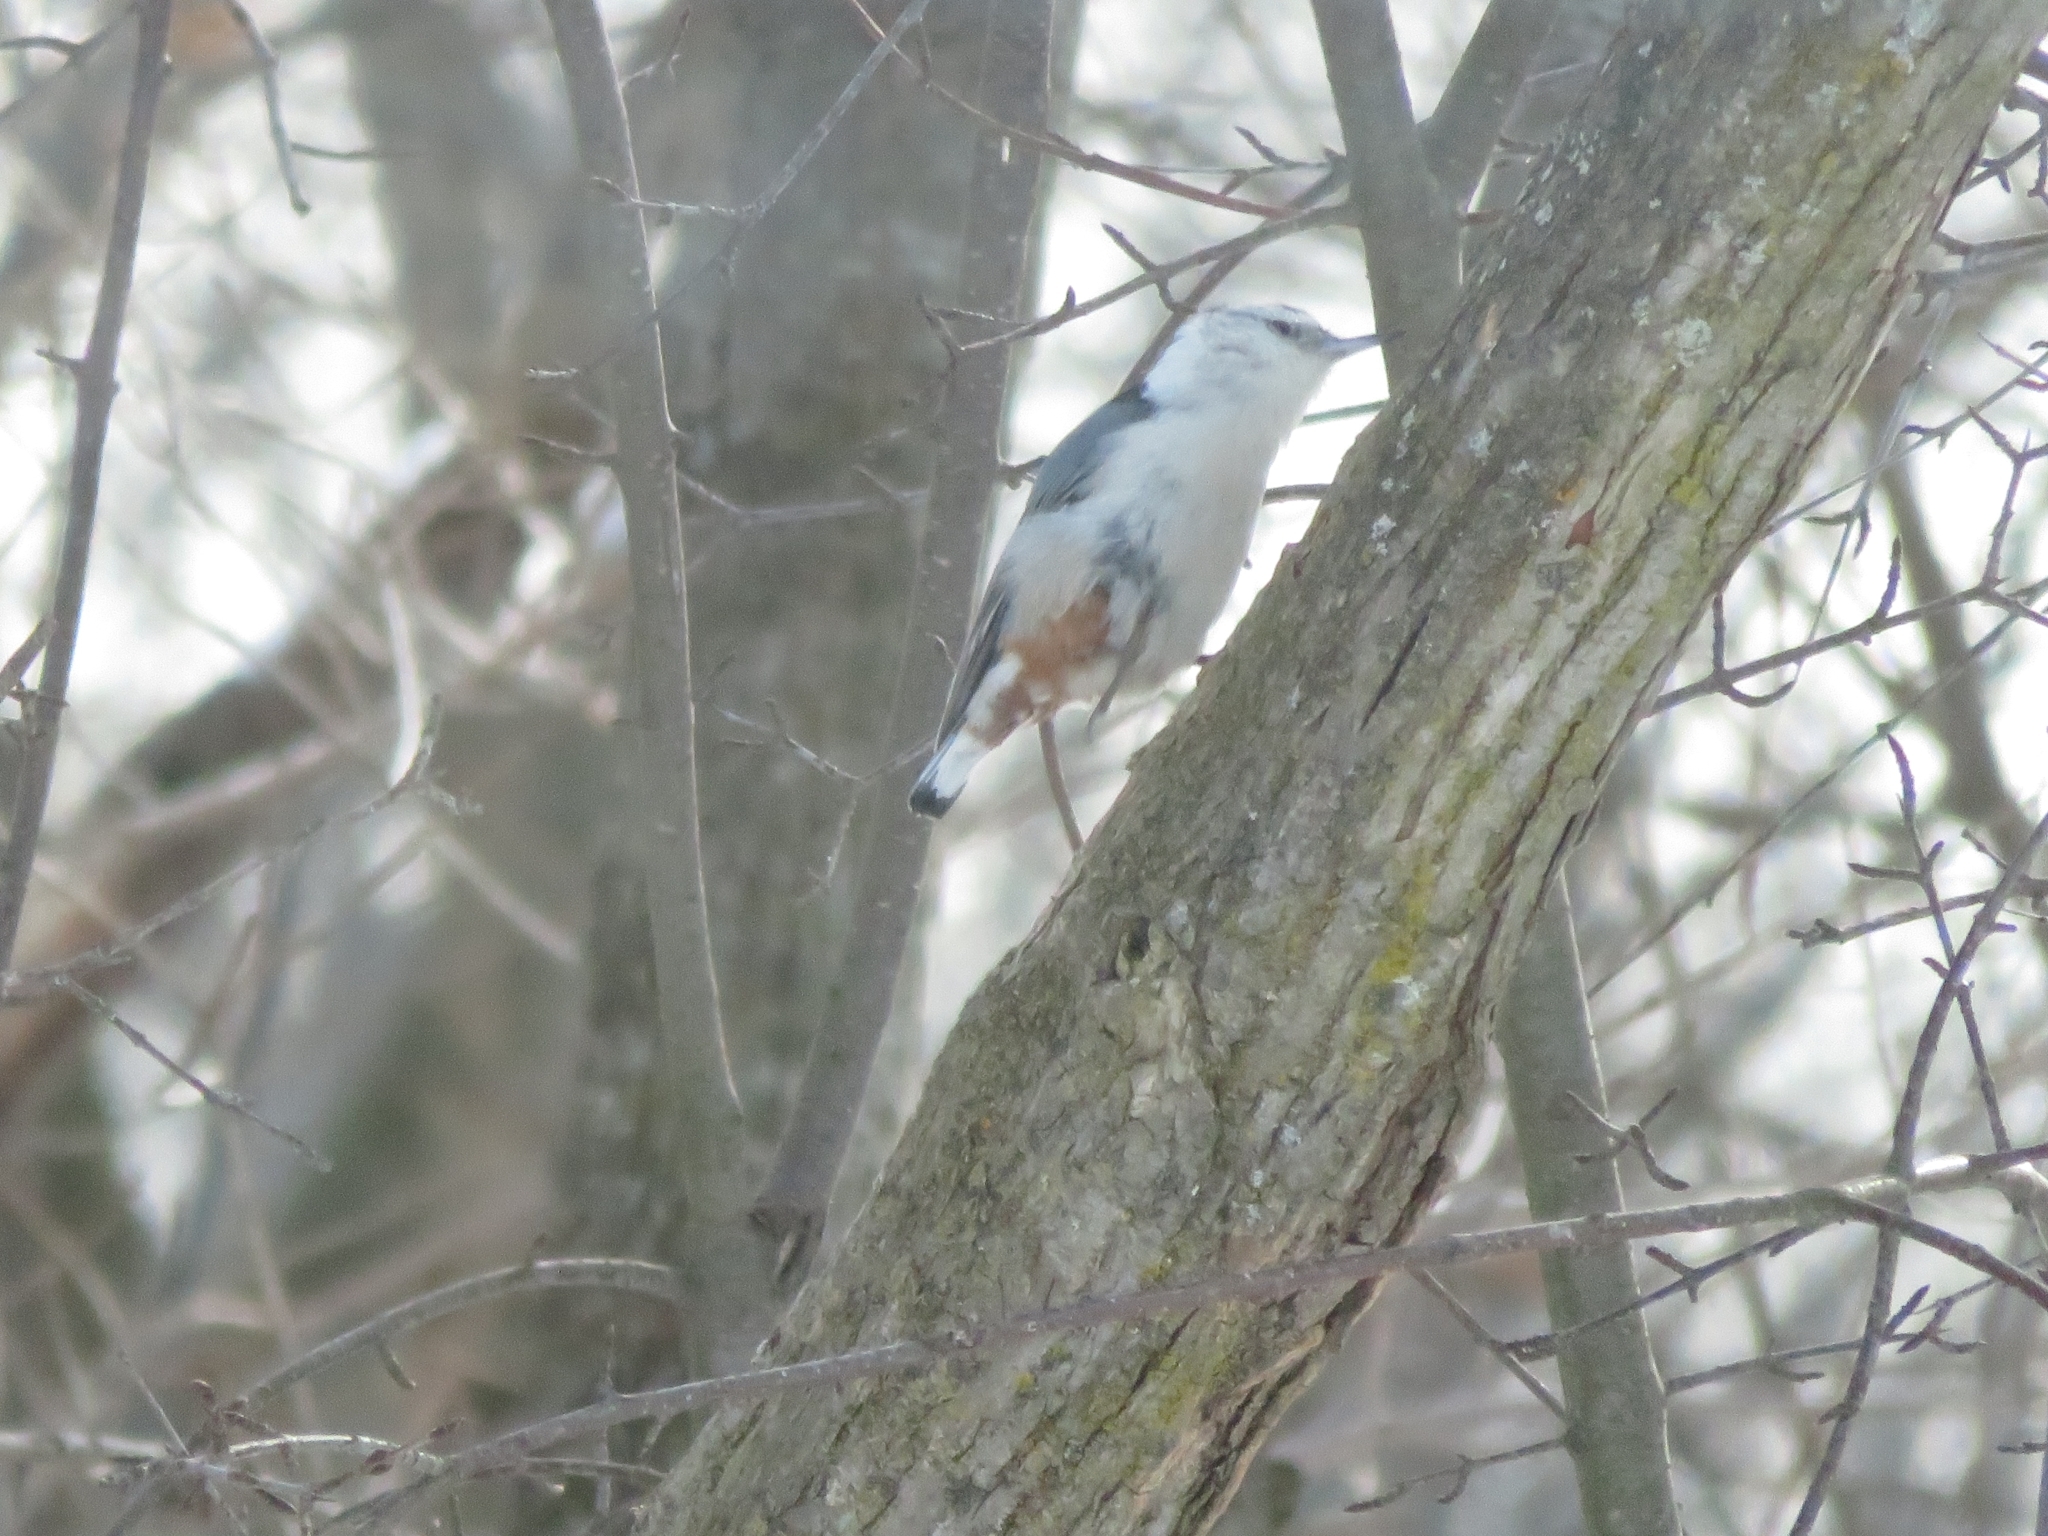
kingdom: Animalia
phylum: Chordata
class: Aves
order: Passeriformes
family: Sittidae
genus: Sitta
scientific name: Sitta carolinensis
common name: White-breasted nuthatch
